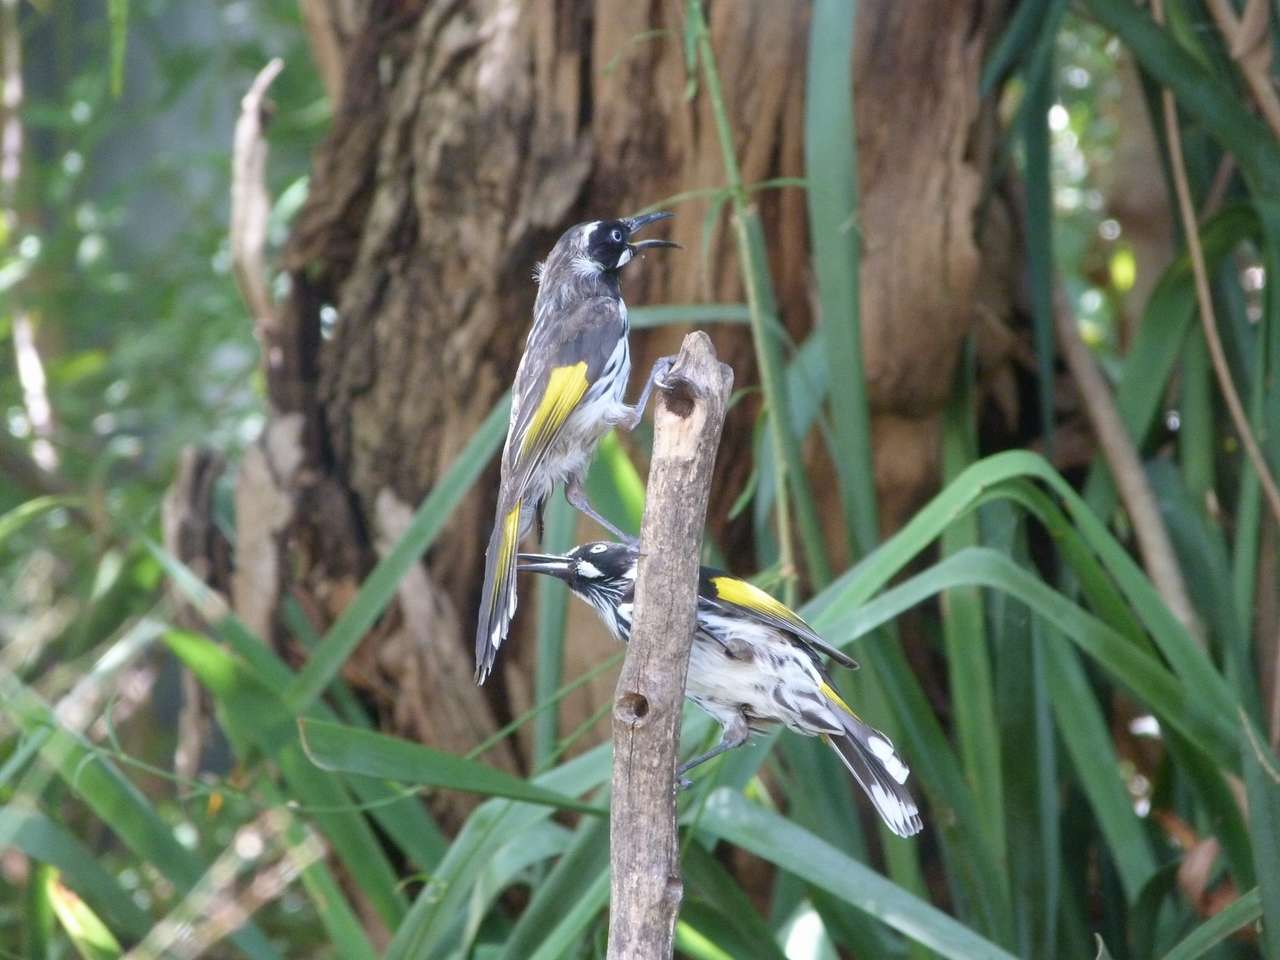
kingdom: Animalia
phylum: Chordata
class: Aves
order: Passeriformes
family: Meliphagidae
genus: Phylidonyris
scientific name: Phylidonyris novaehollandiae
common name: New holland honeyeater
